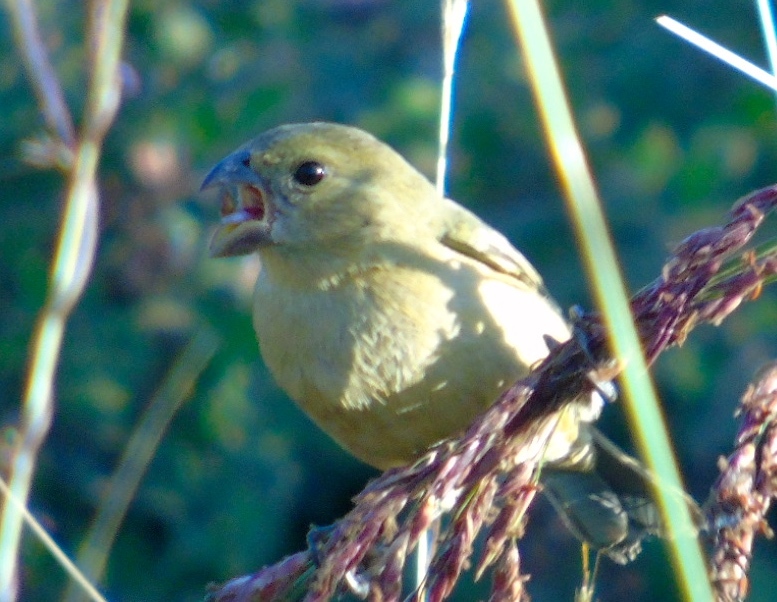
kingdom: Animalia
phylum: Chordata
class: Aves
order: Passeriformes
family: Thraupidae
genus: Sporophila
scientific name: Sporophila torqueola
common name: White-collared seedeater
